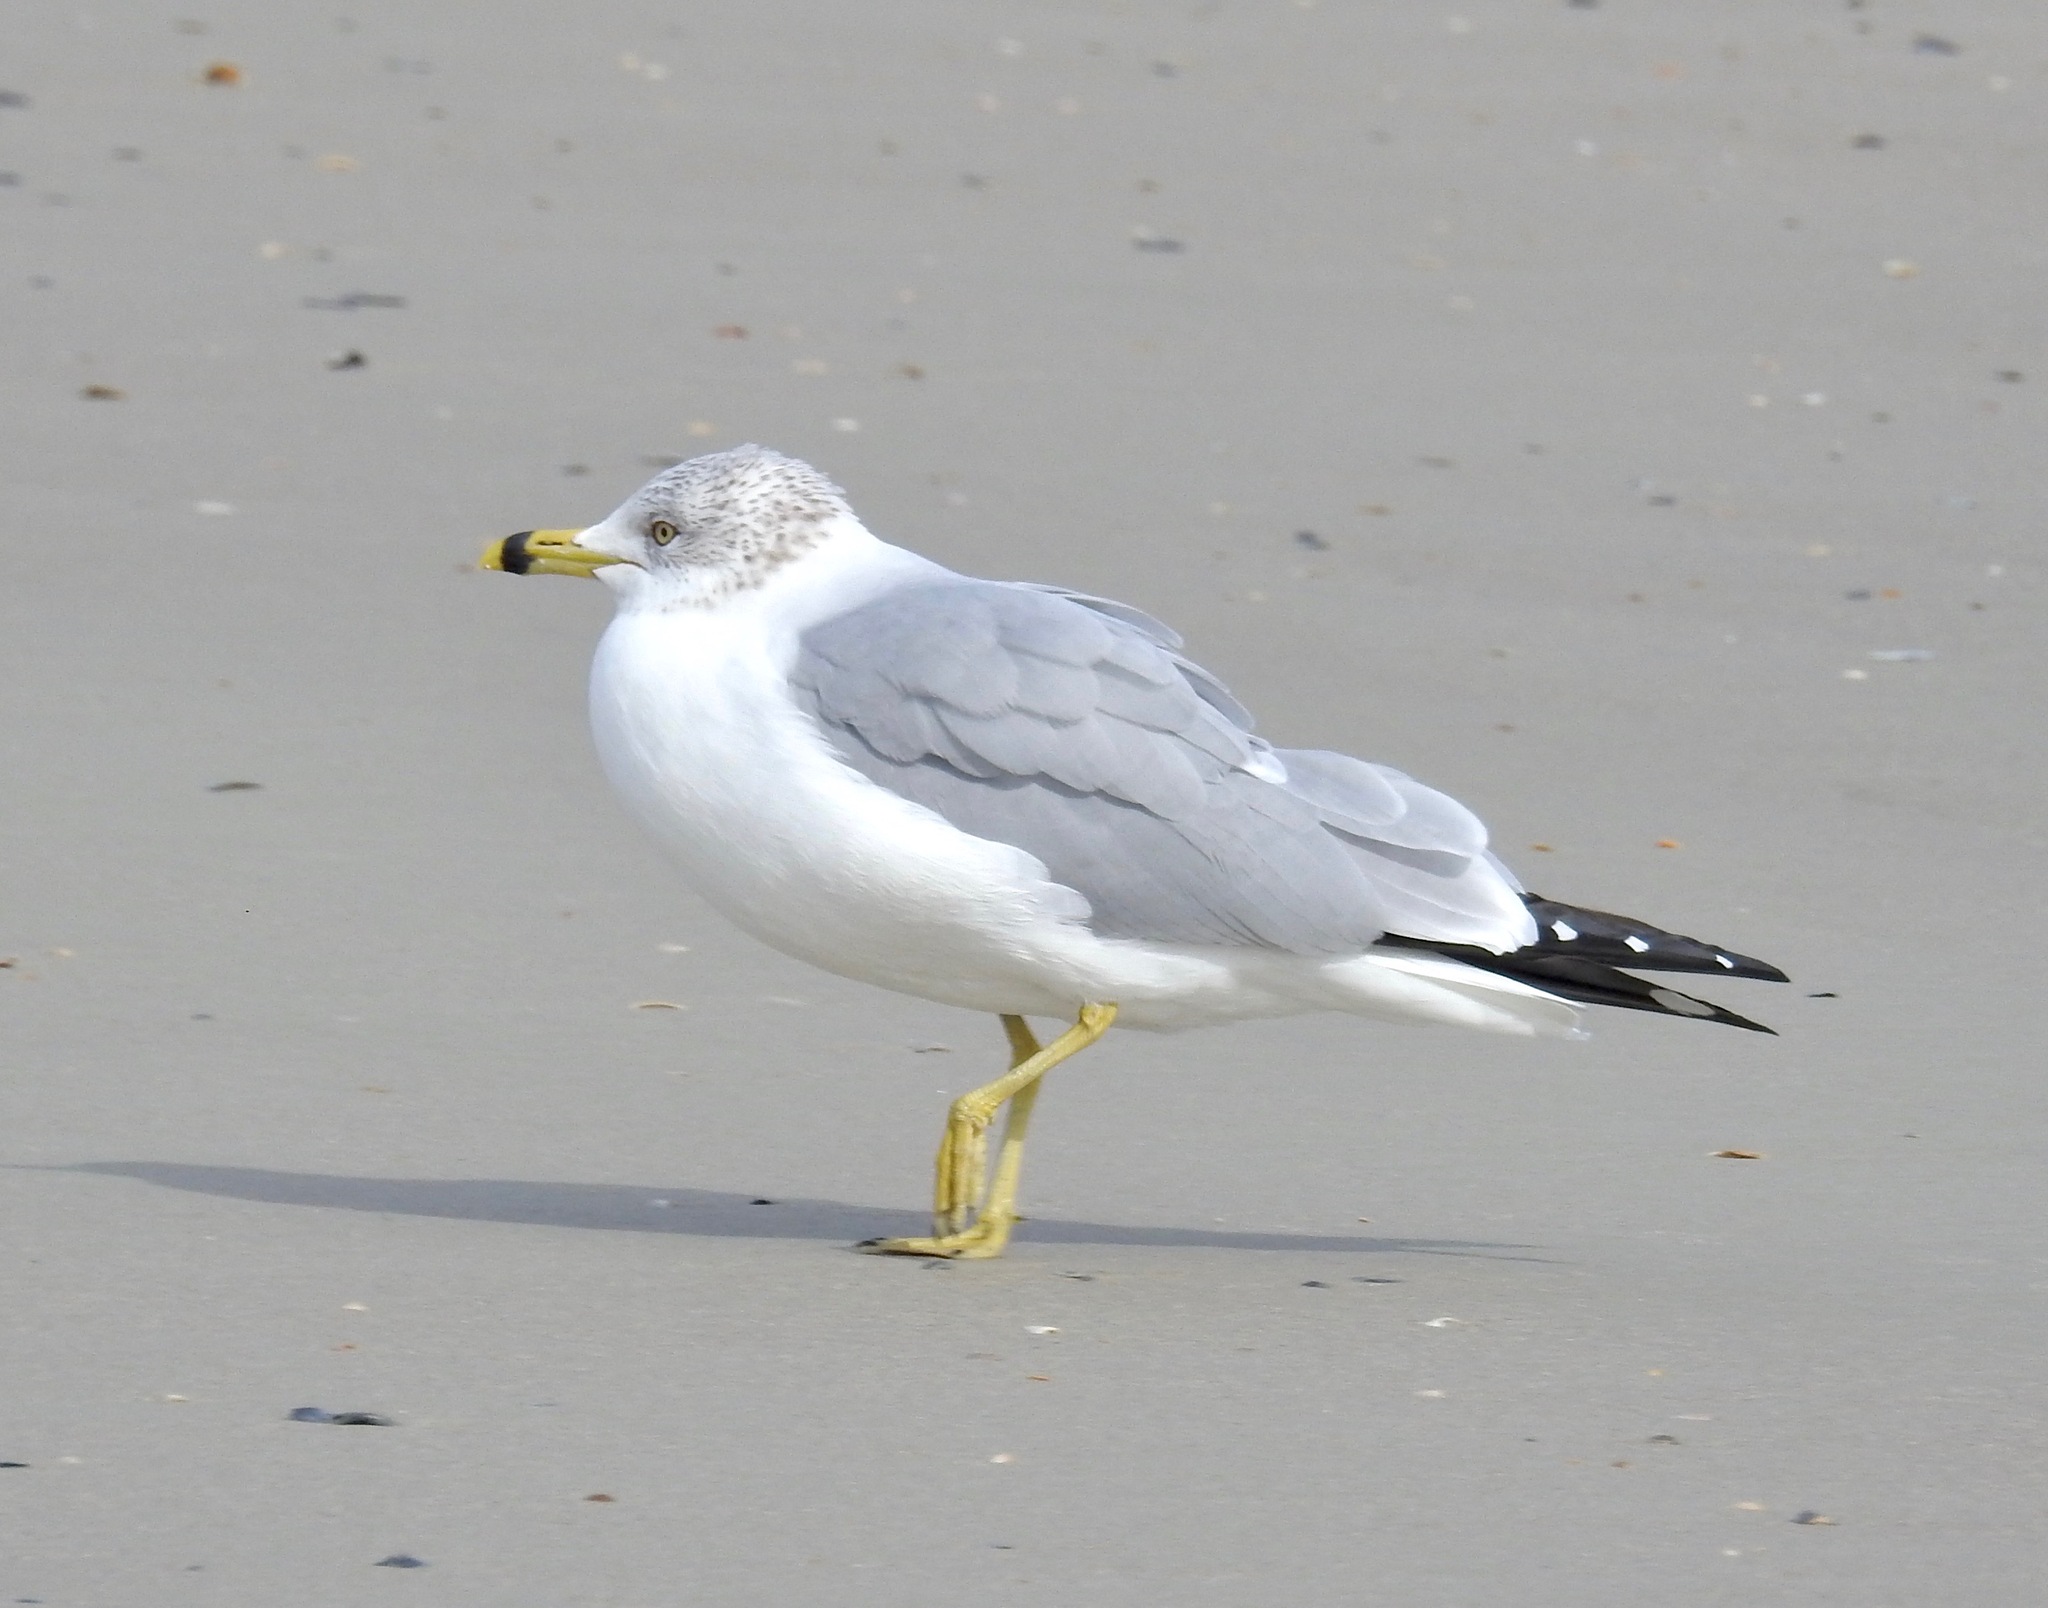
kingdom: Animalia
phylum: Chordata
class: Aves
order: Charadriiformes
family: Laridae
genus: Larus
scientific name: Larus delawarensis
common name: Ring-billed gull
